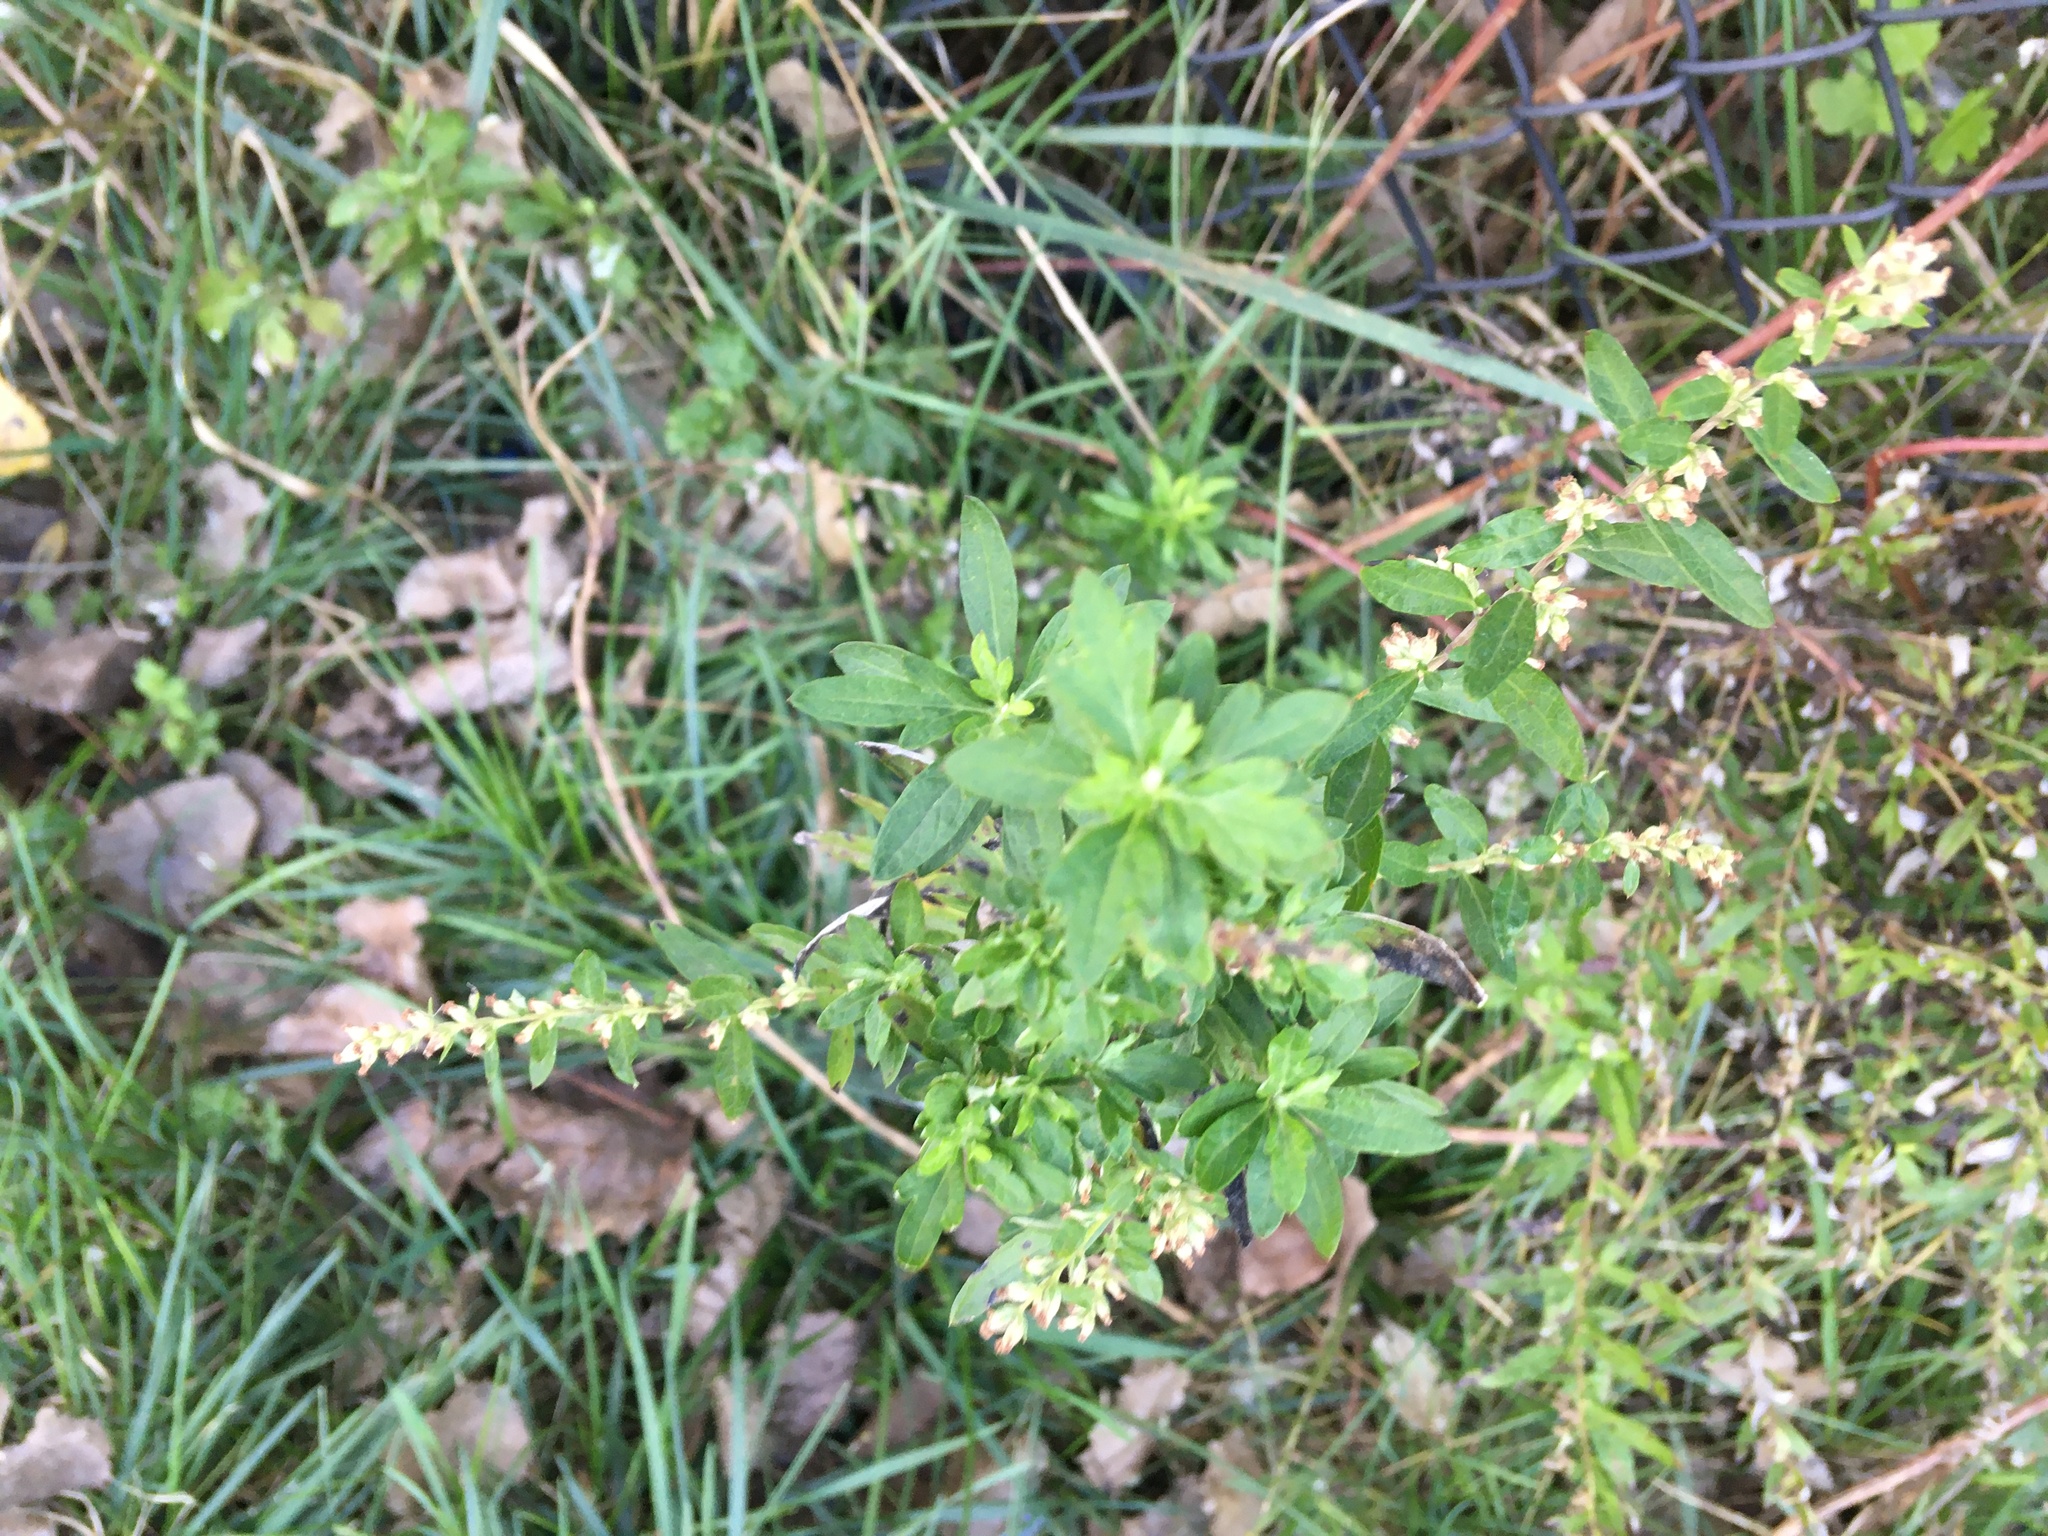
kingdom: Plantae
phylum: Tracheophyta
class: Magnoliopsida
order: Asterales
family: Asteraceae
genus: Artemisia
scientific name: Artemisia vulgaris
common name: Mugwort
